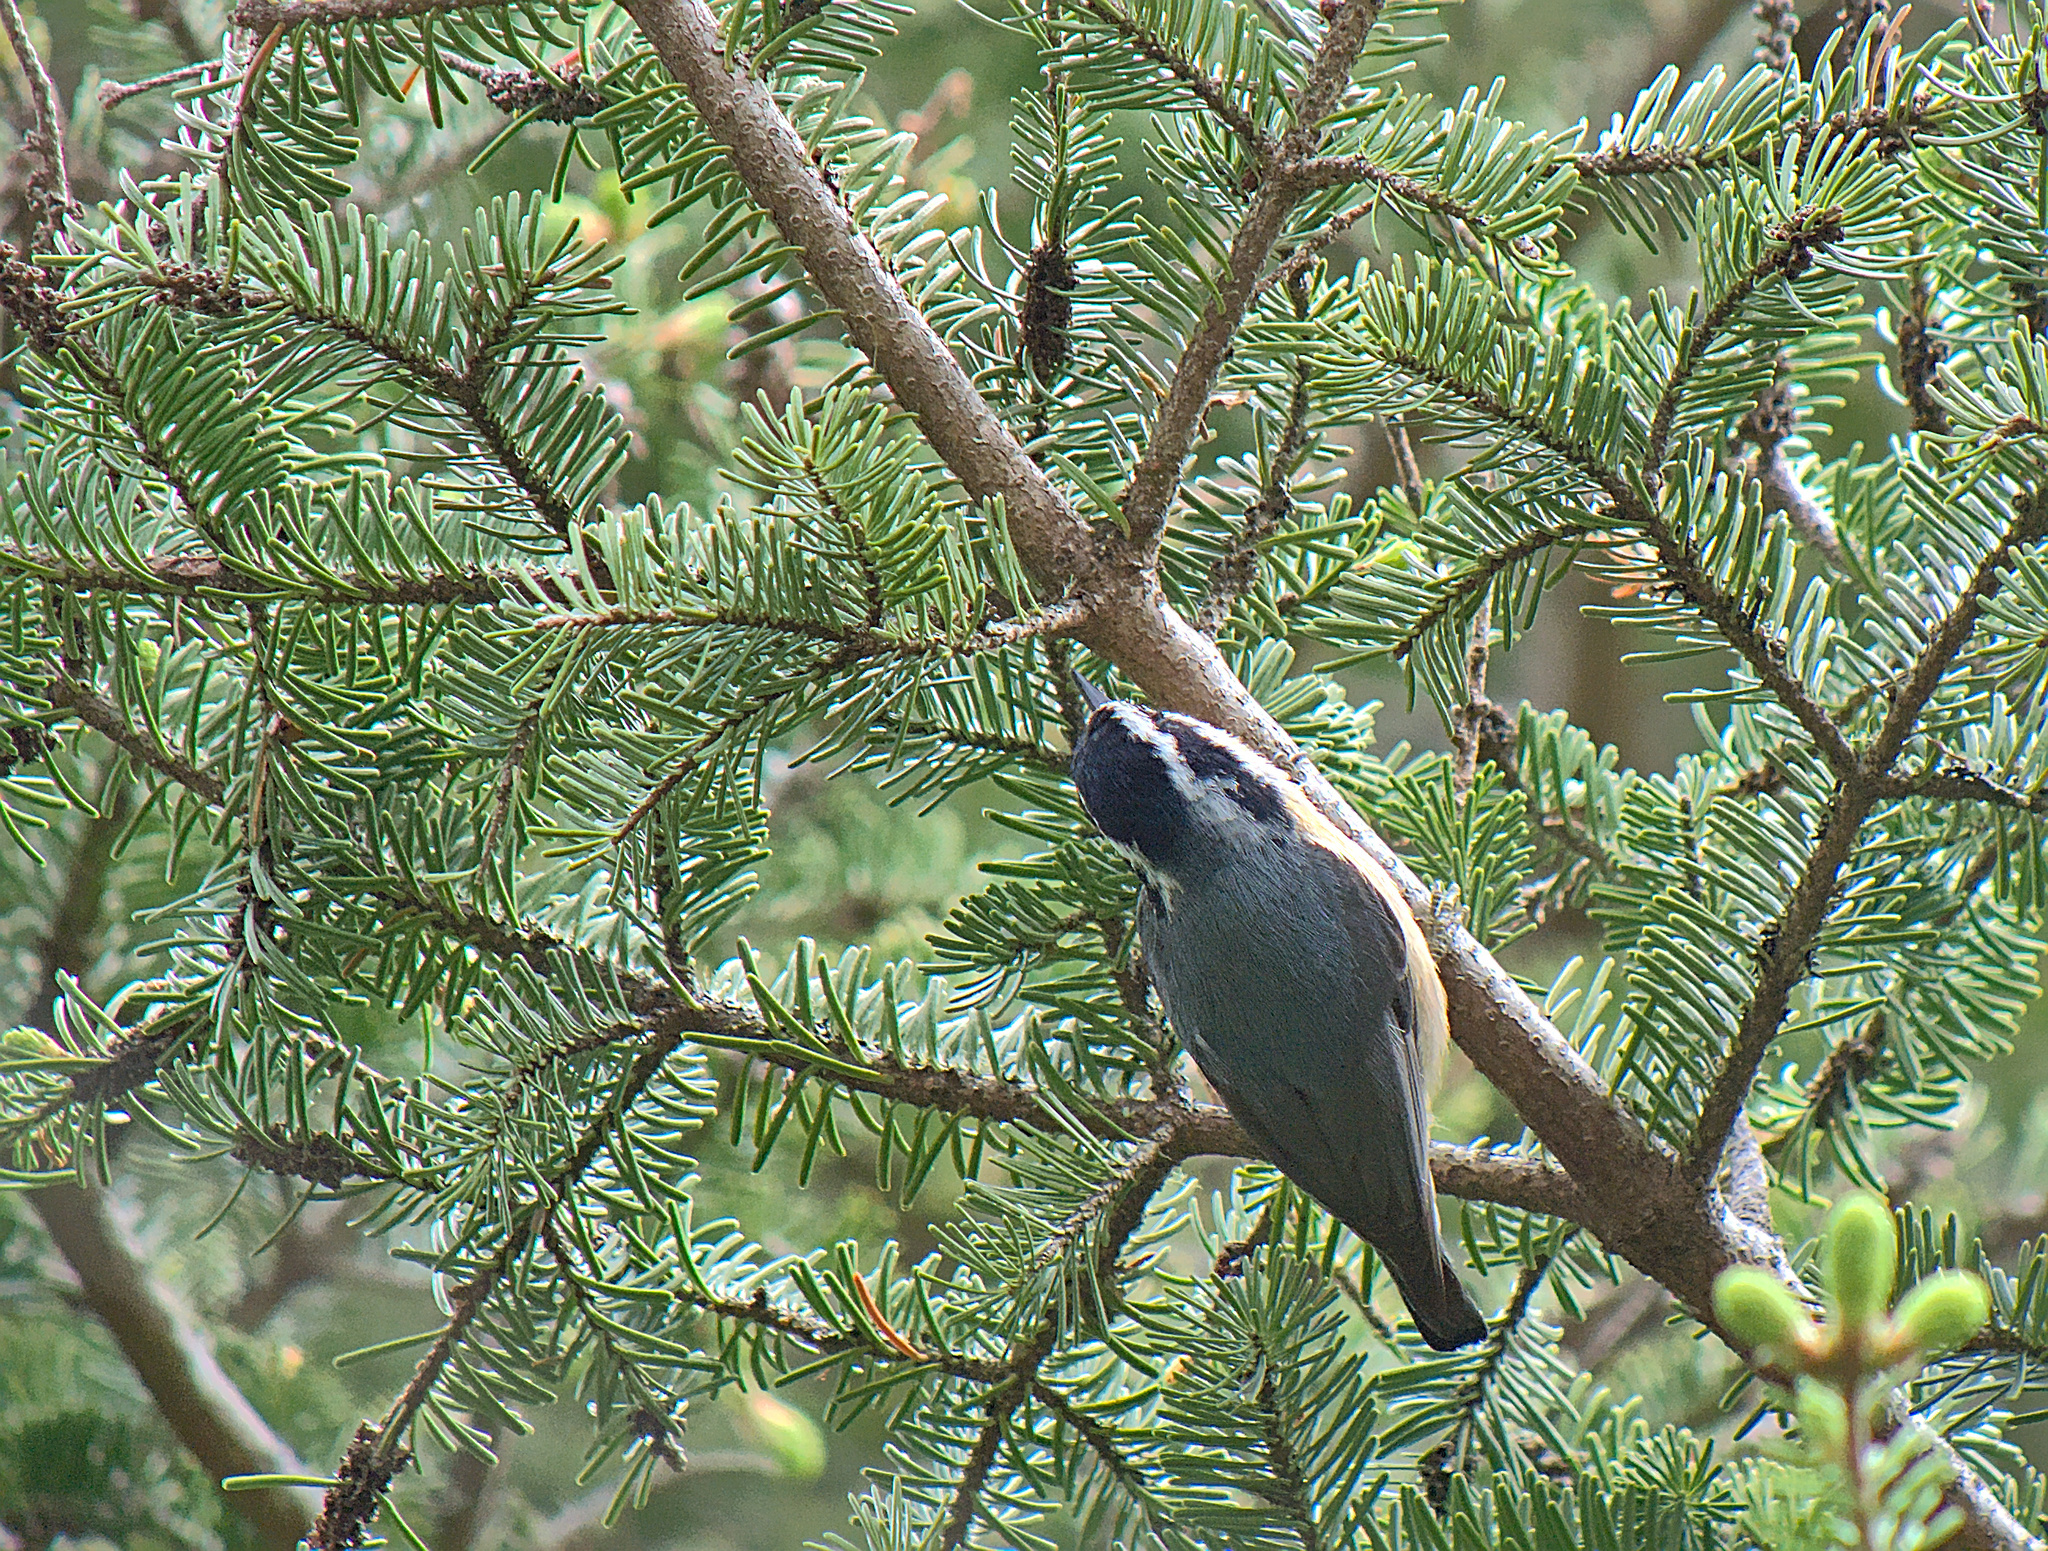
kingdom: Animalia
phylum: Chordata
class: Aves
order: Passeriformes
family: Sittidae
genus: Sitta
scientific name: Sitta canadensis
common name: Red-breasted nuthatch
